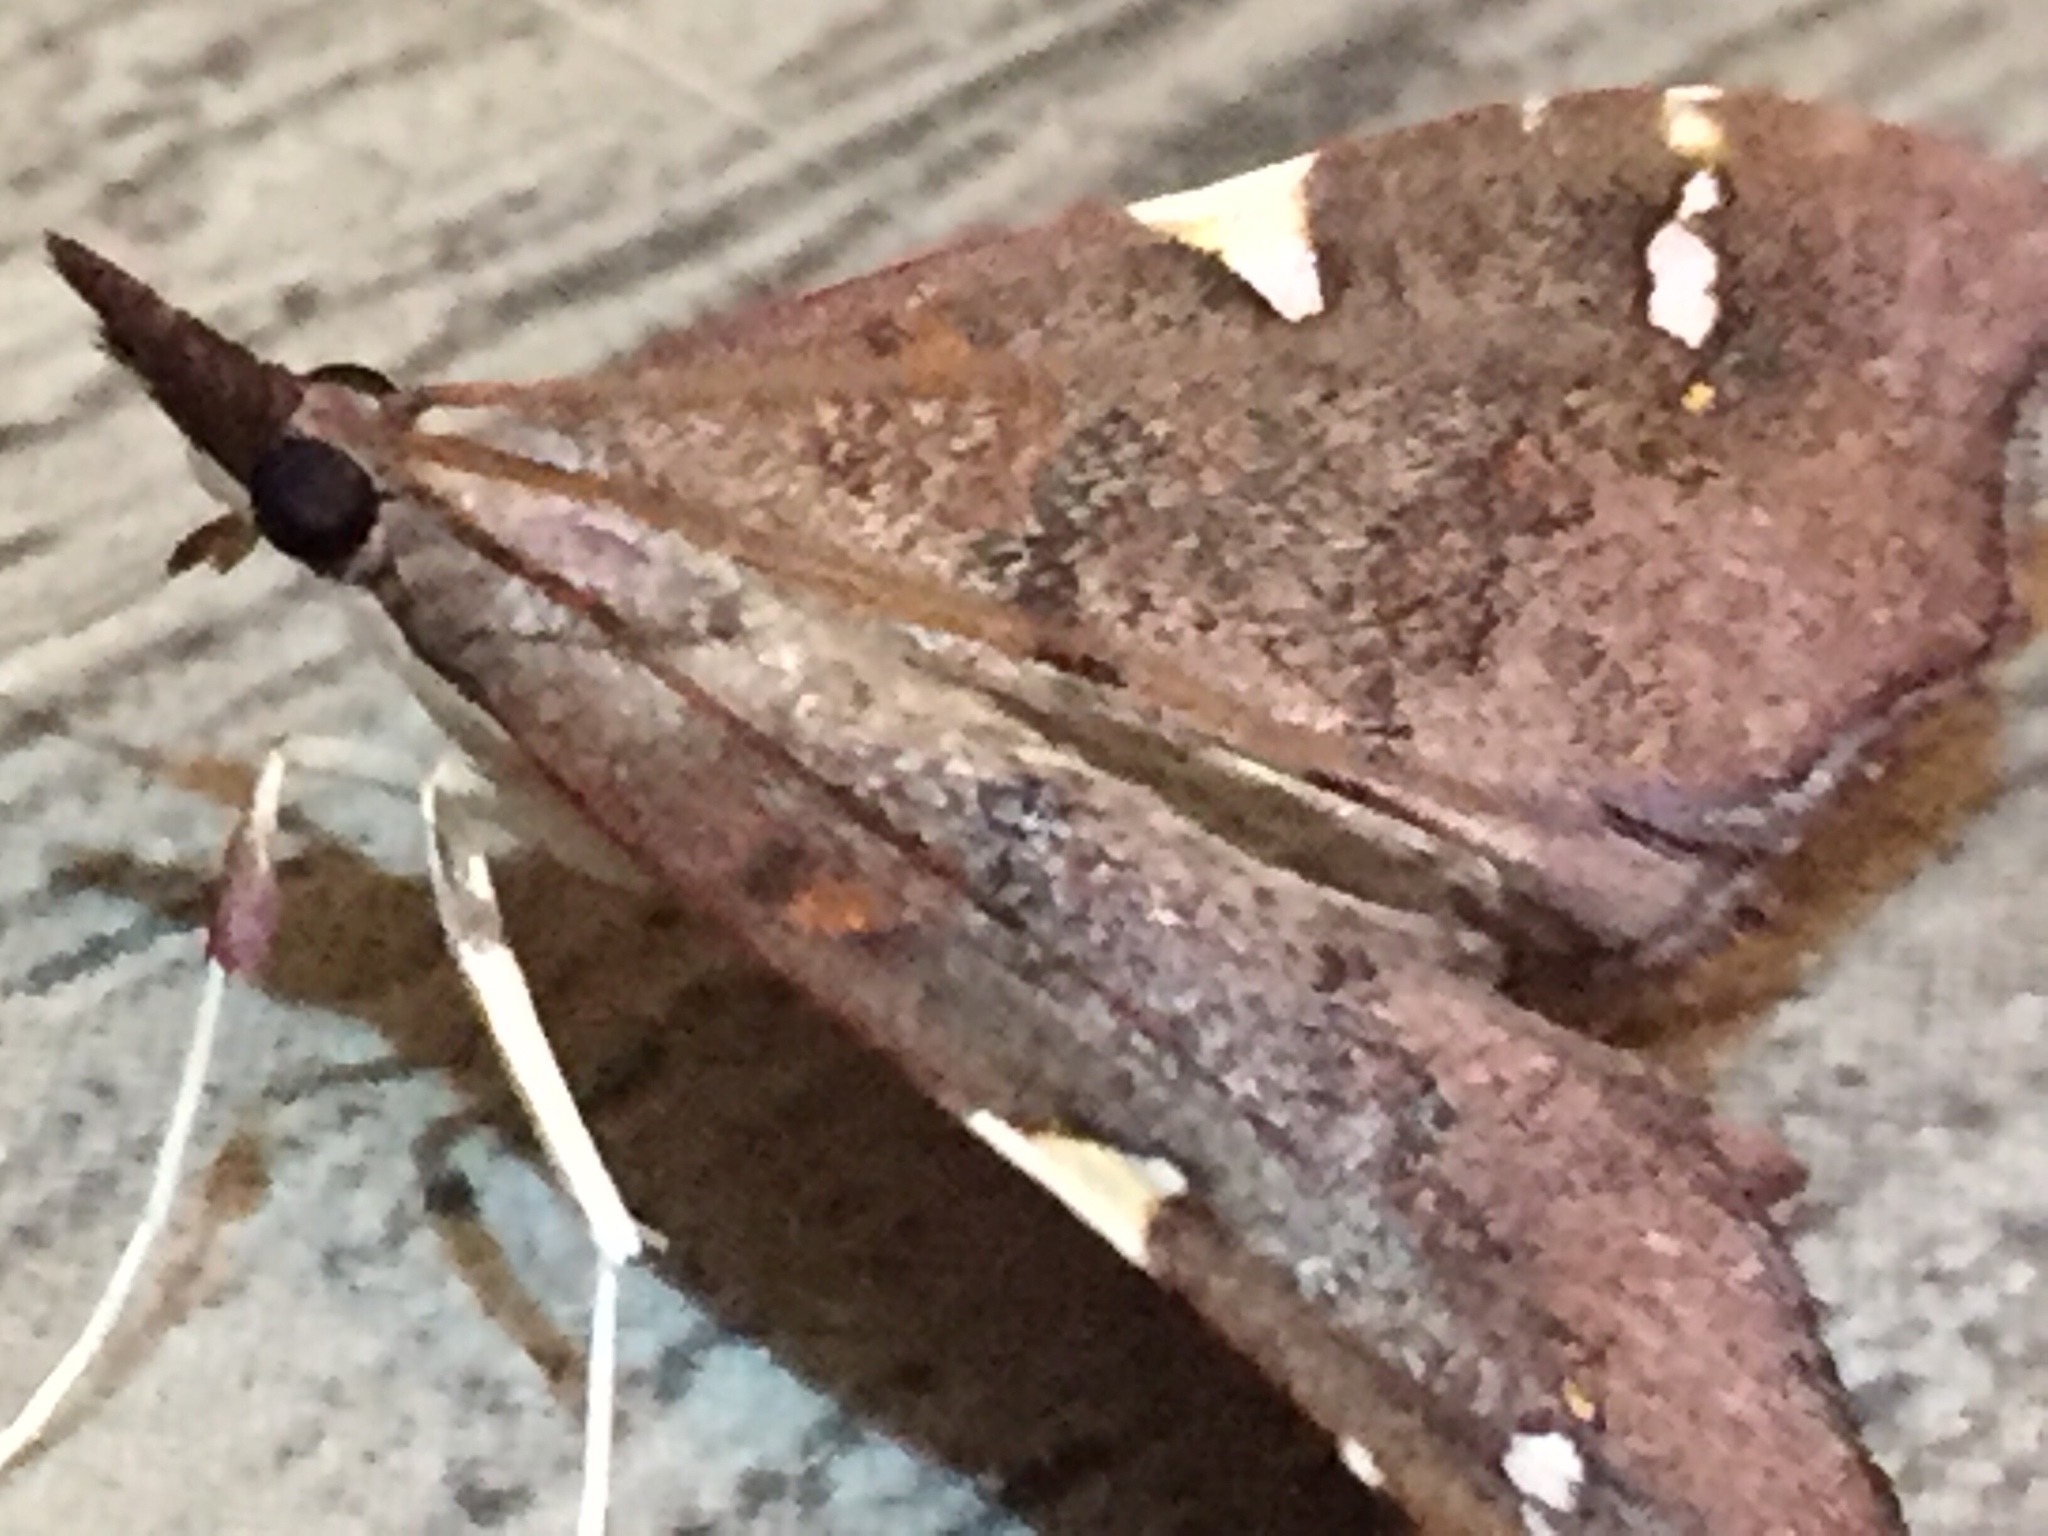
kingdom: Animalia
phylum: Arthropoda
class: Insecta
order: Lepidoptera
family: Crambidae
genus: Deana
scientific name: Deana hybreasalis
